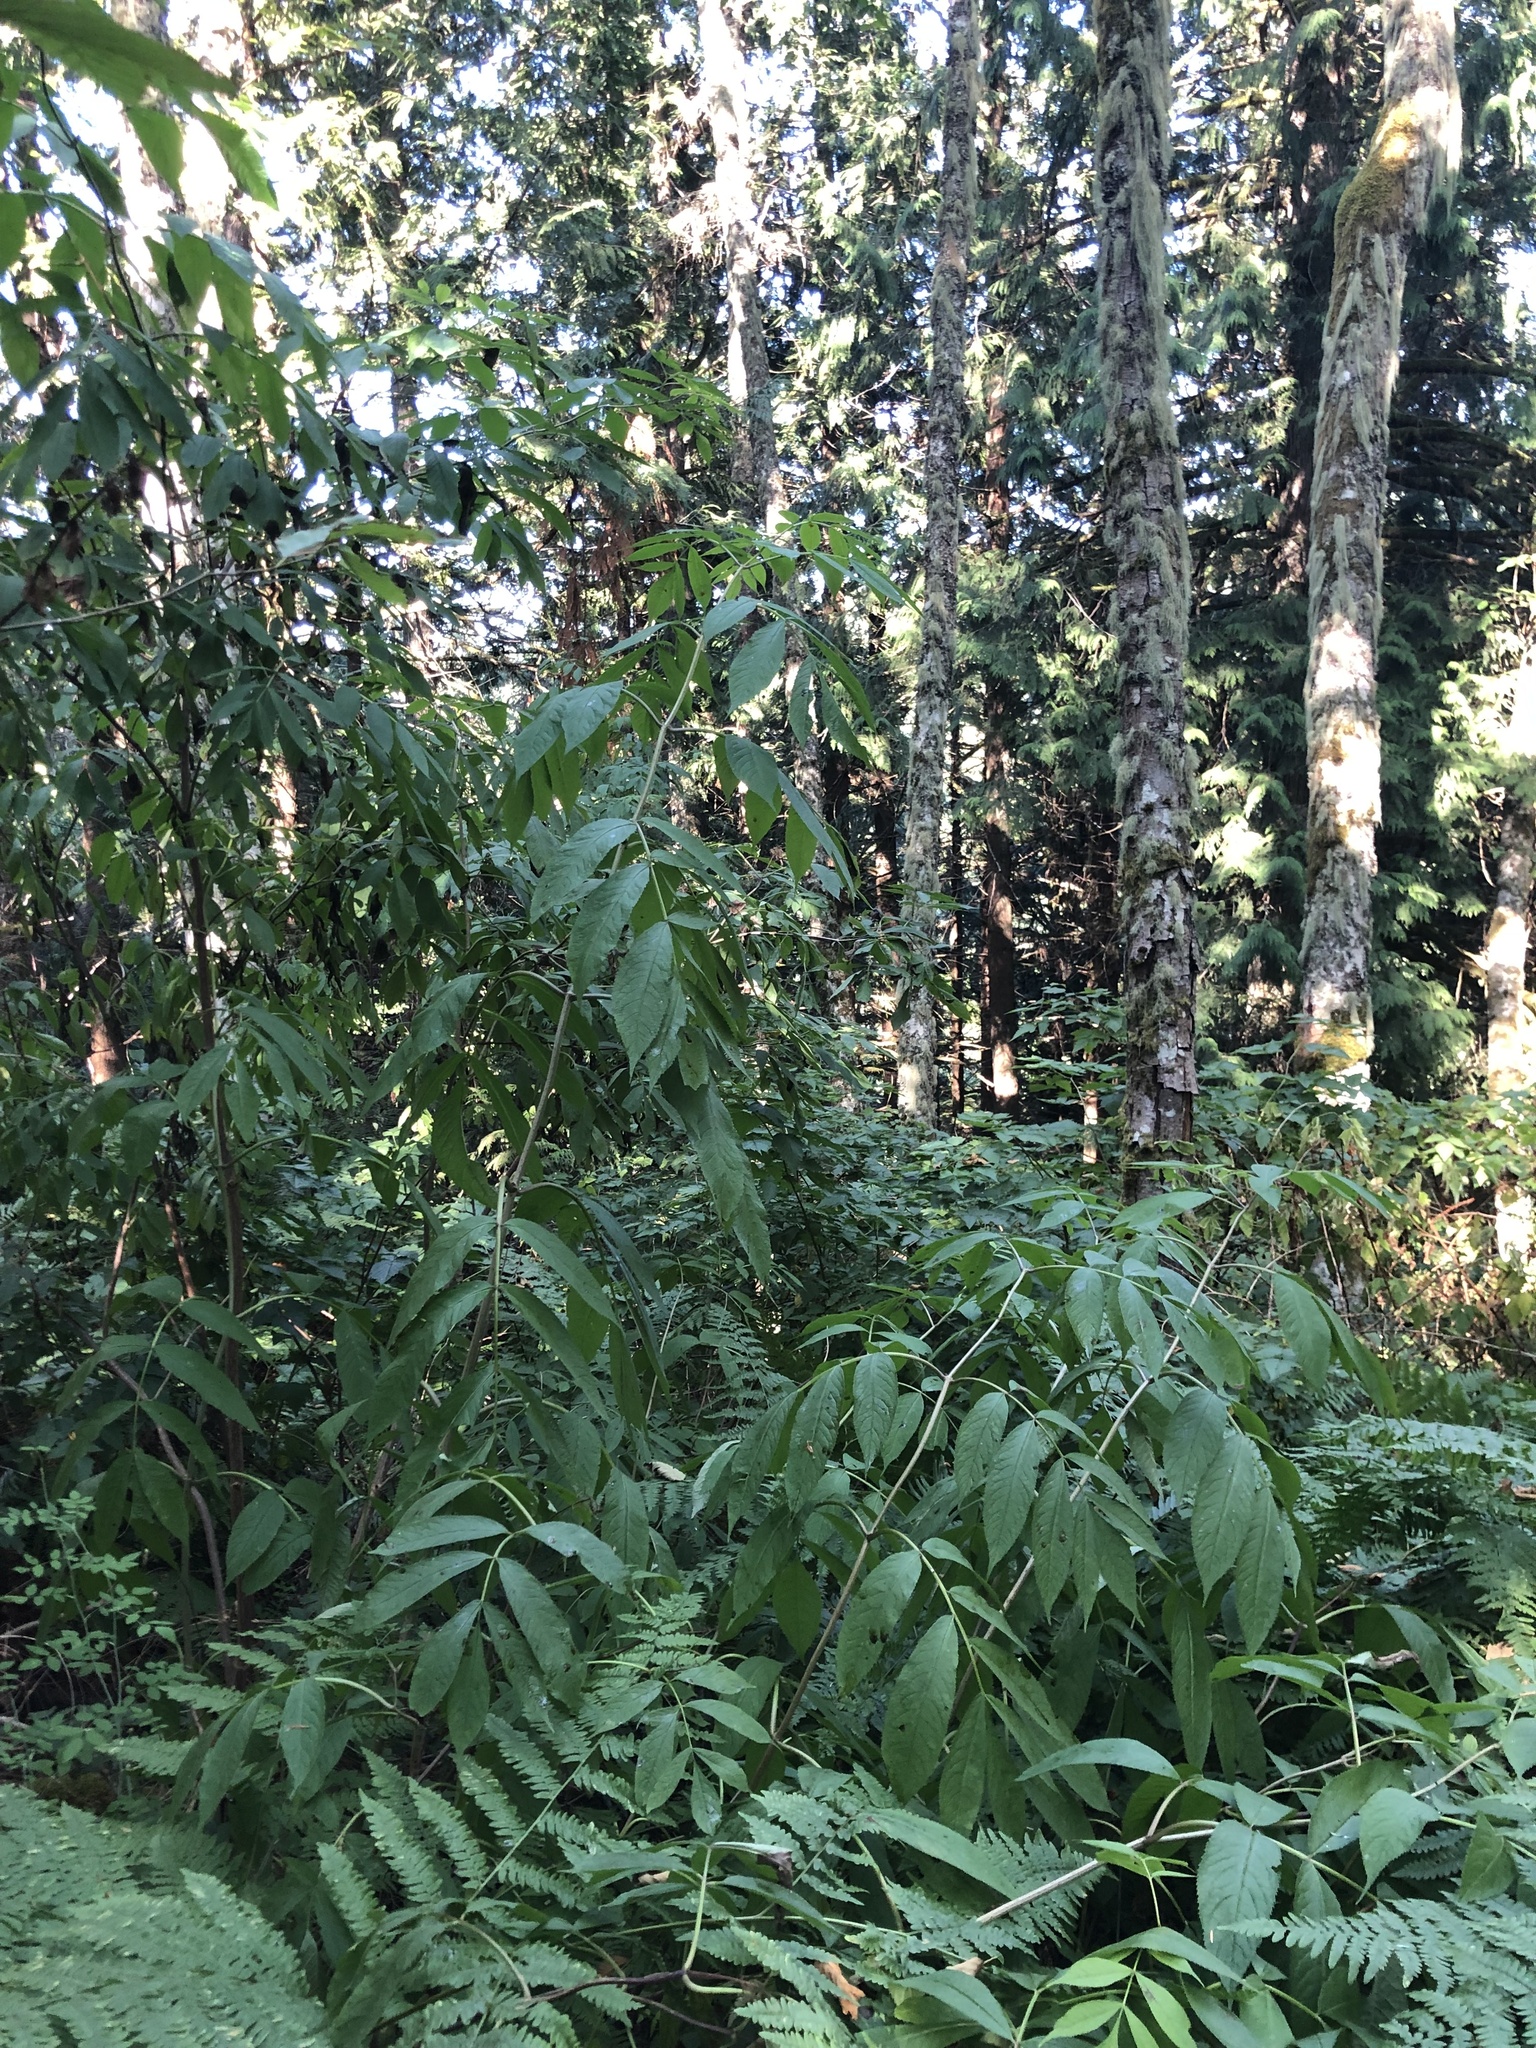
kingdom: Plantae
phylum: Tracheophyta
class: Magnoliopsida
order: Dipsacales
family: Viburnaceae
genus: Sambucus
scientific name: Sambucus racemosa
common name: Red-berried elder
